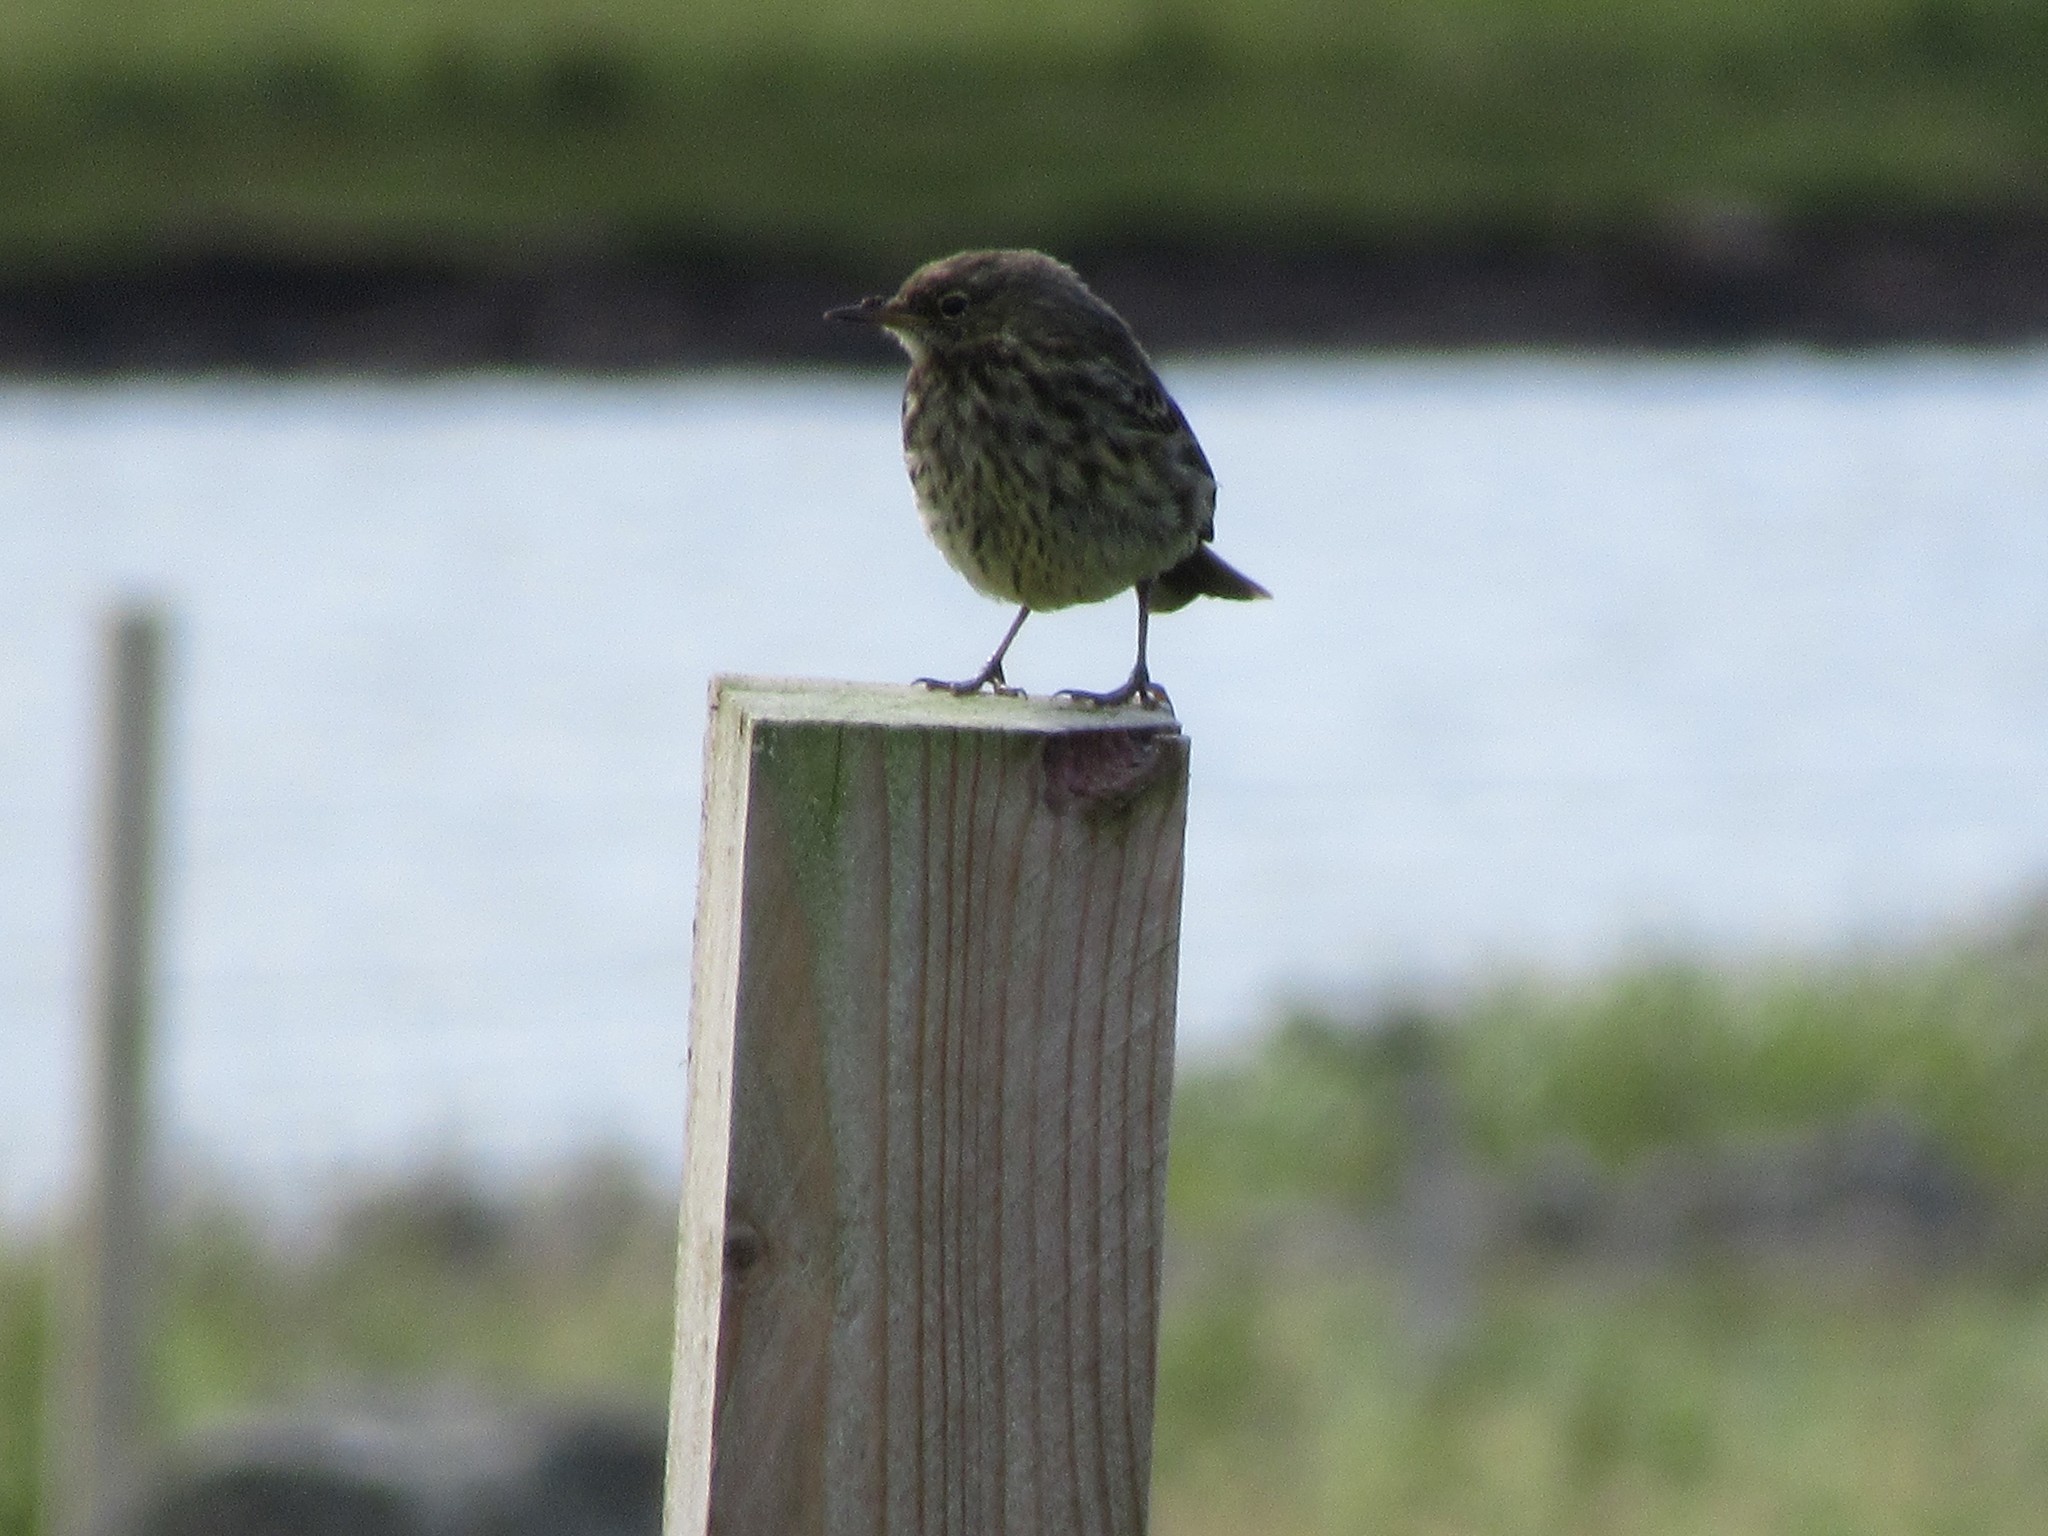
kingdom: Animalia
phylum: Chordata
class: Aves
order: Passeriformes
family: Motacillidae
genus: Anthus
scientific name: Anthus petrosus
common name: Eurasian rock pipit
